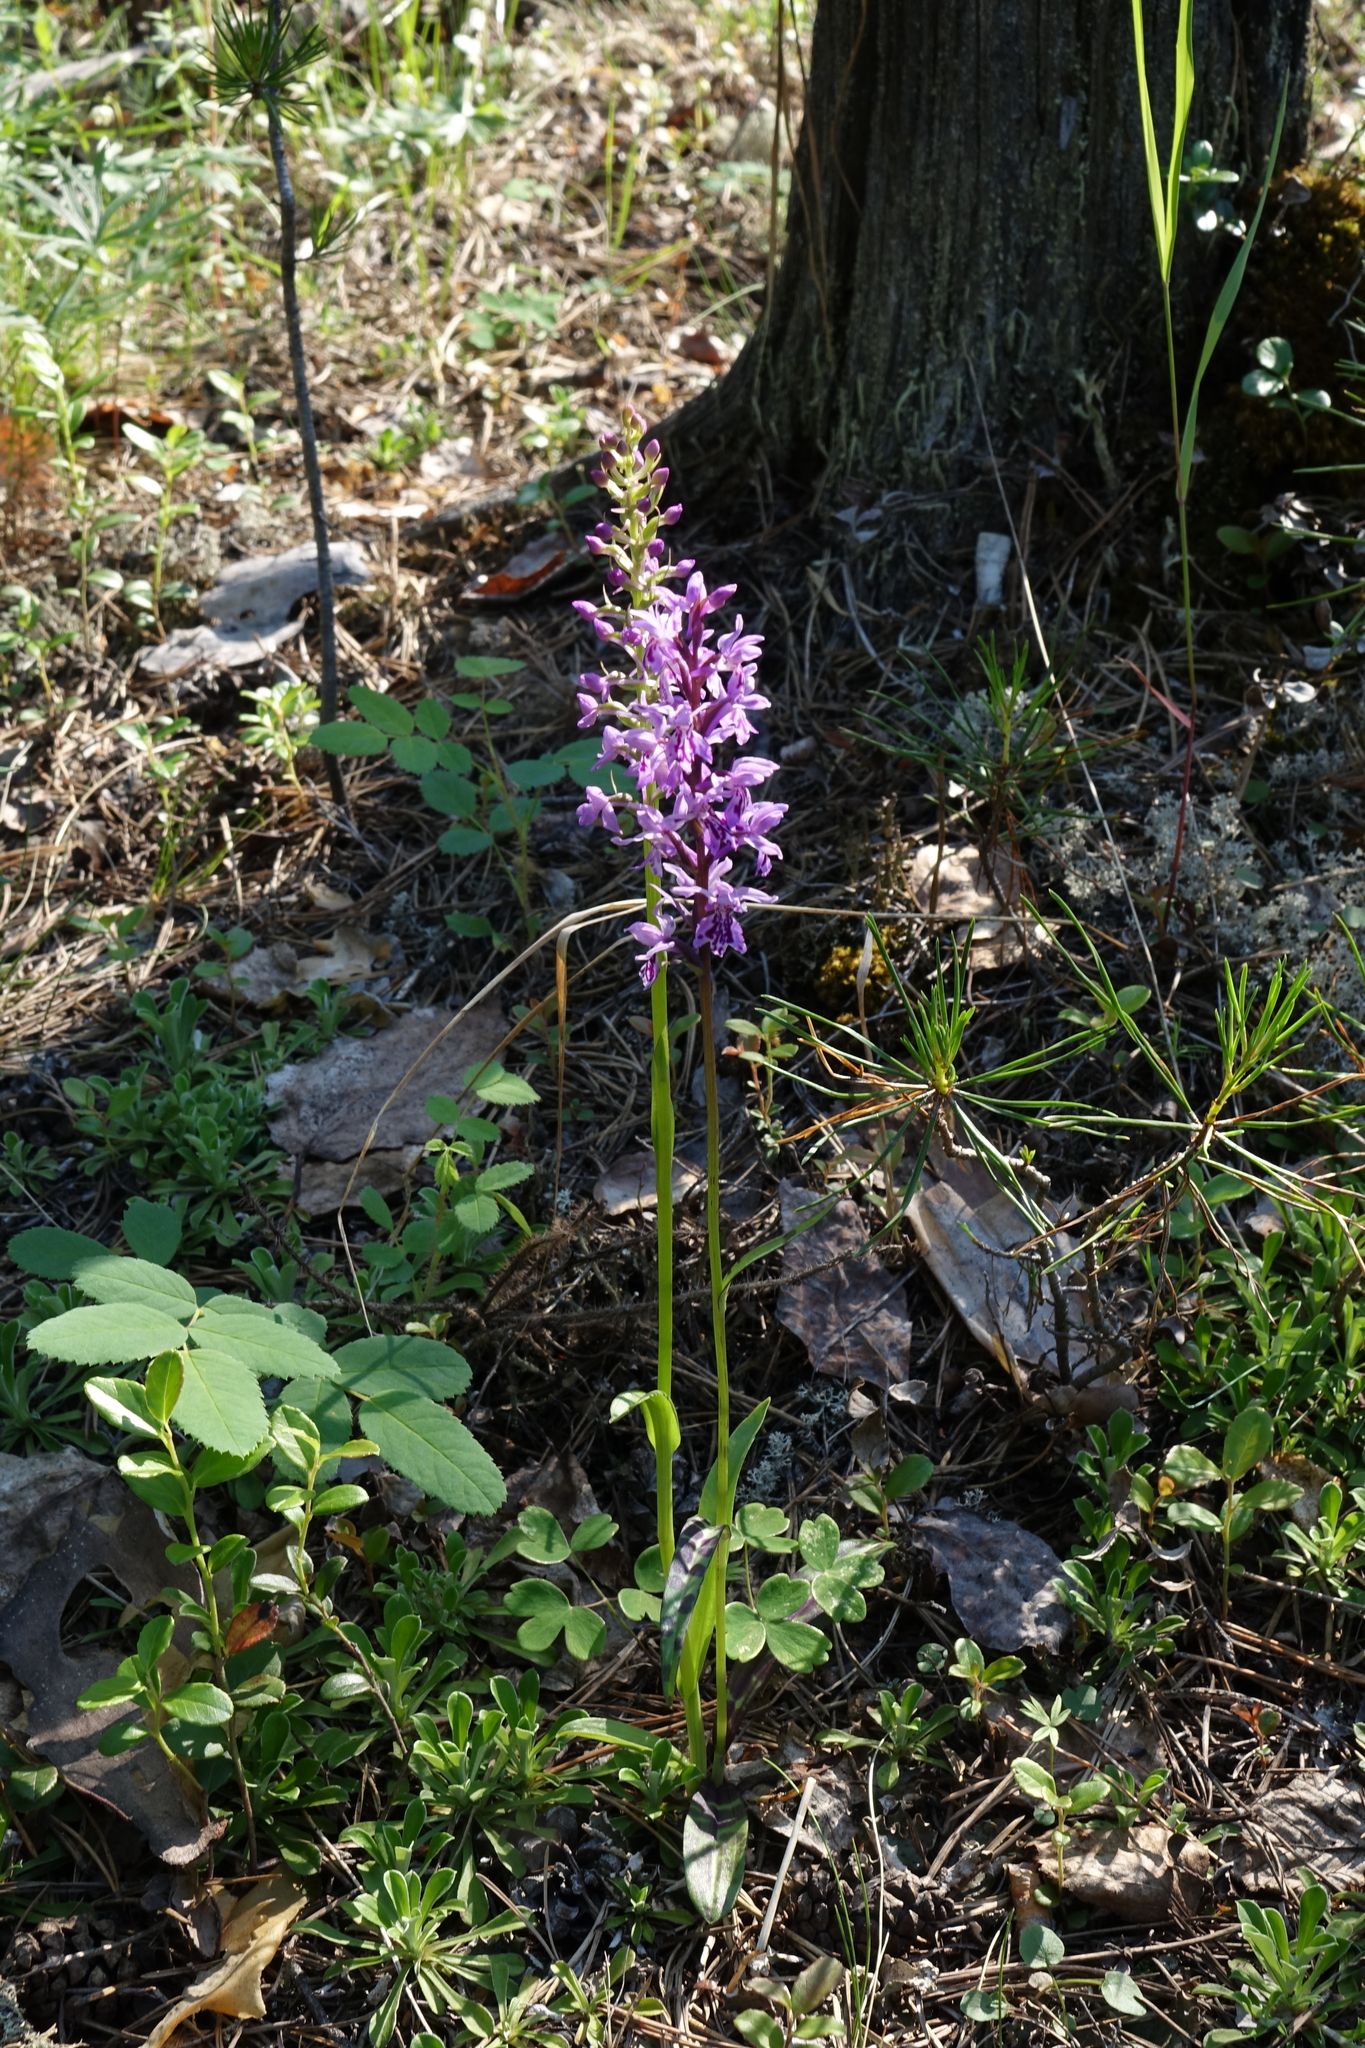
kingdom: Plantae
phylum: Tracheophyta
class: Liliopsida
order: Asparagales
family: Orchidaceae
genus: Dactylorhiza
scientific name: Dactylorhiza maculata
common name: Heath spotted-orchid
